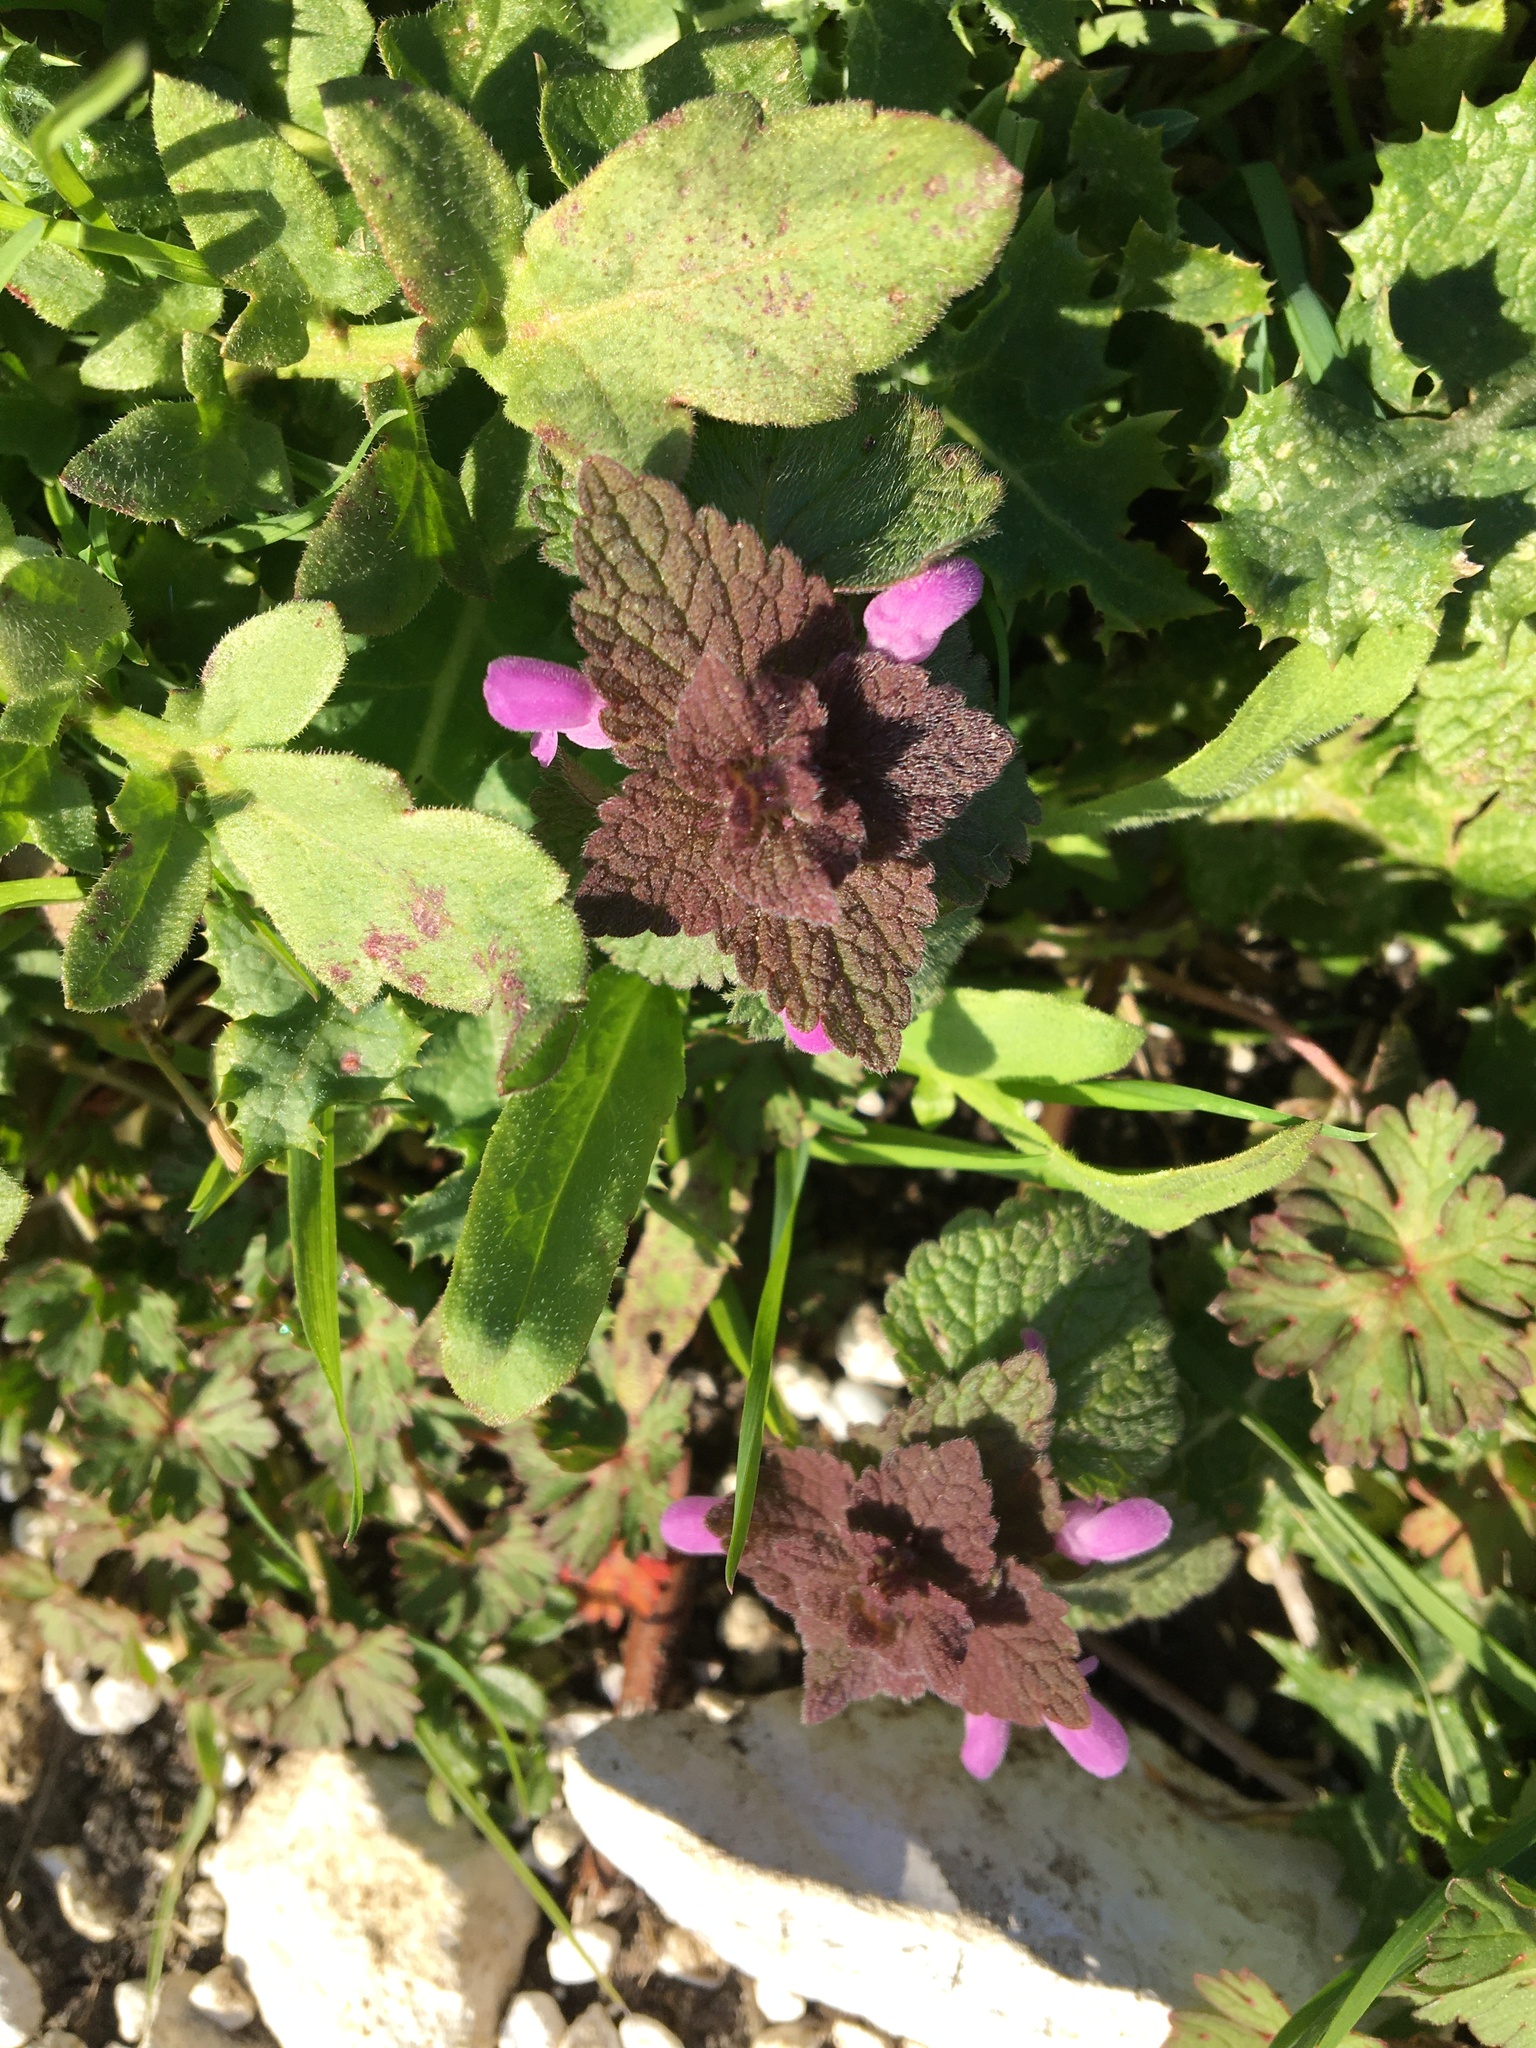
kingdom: Plantae
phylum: Tracheophyta
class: Magnoliopsida
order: Lamiales
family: Lamiaceae
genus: Lamium
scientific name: Lamium purpureum
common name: Red dead-nettle
